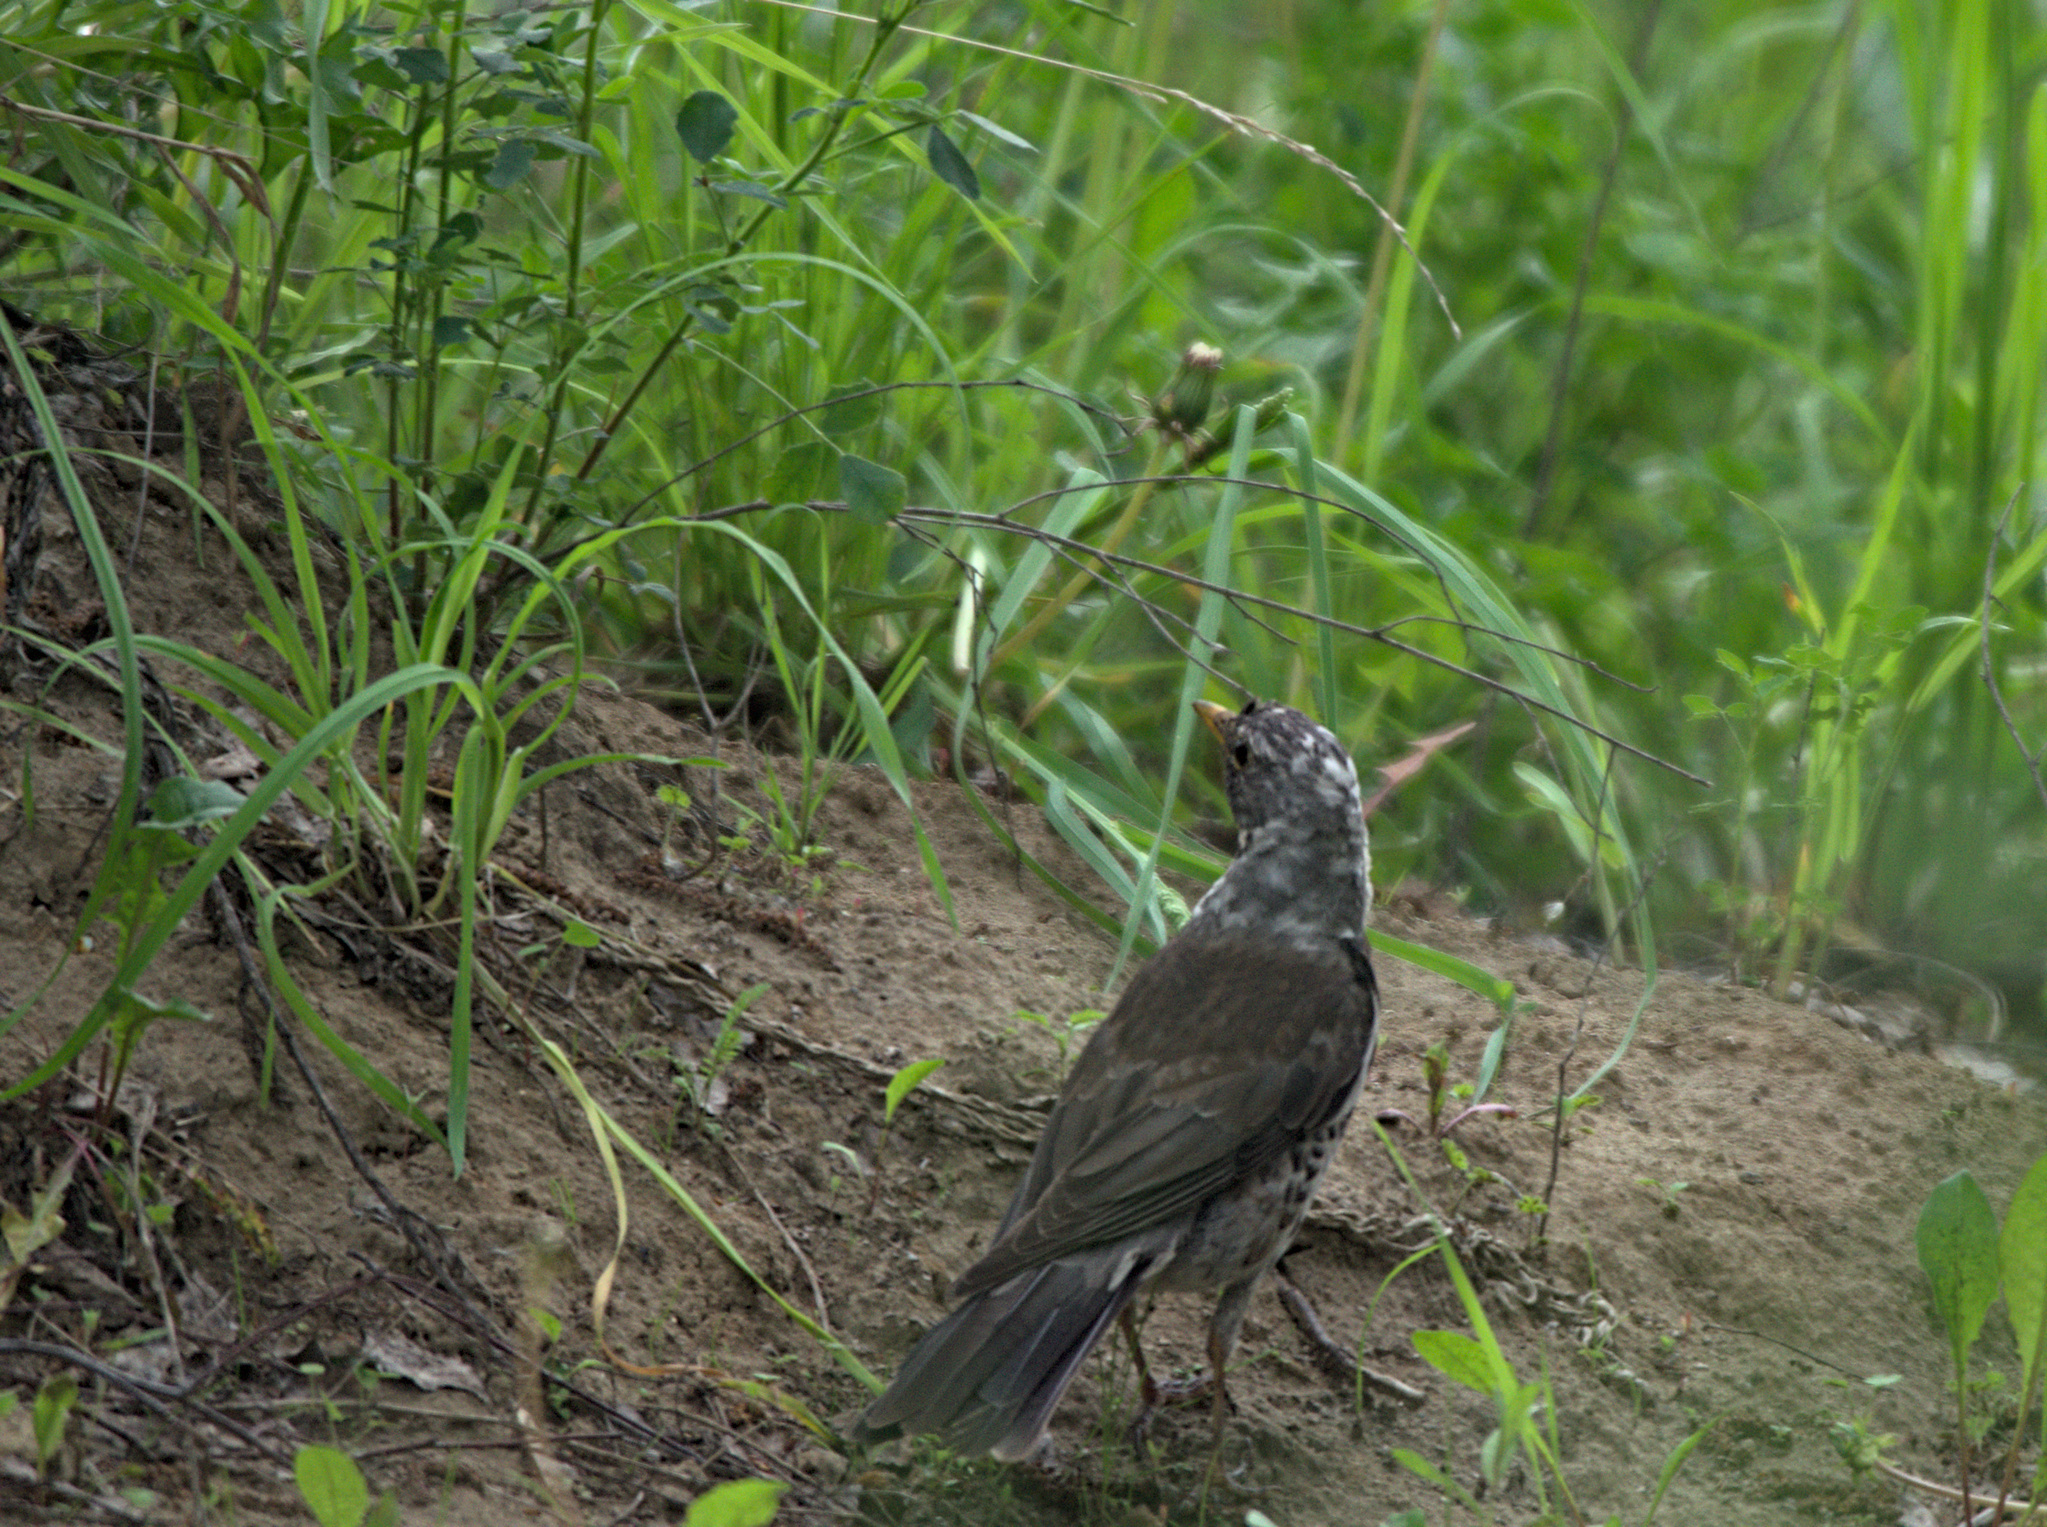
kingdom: Animalia
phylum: Chordata
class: Aves
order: Passeriformes
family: Turdidae
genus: Turdus
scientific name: Turdus pilaris
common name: Fieldfare
